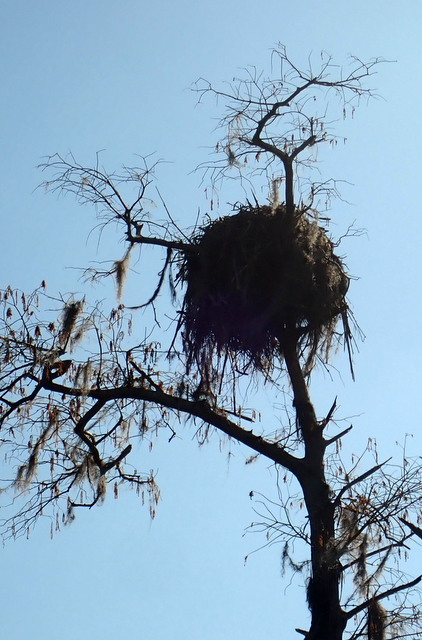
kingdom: Animalia
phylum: Chordata
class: Aves
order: Accipitriformes
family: Pandionidae
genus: Pandion
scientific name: Pandion haliaetus
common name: Osprey
